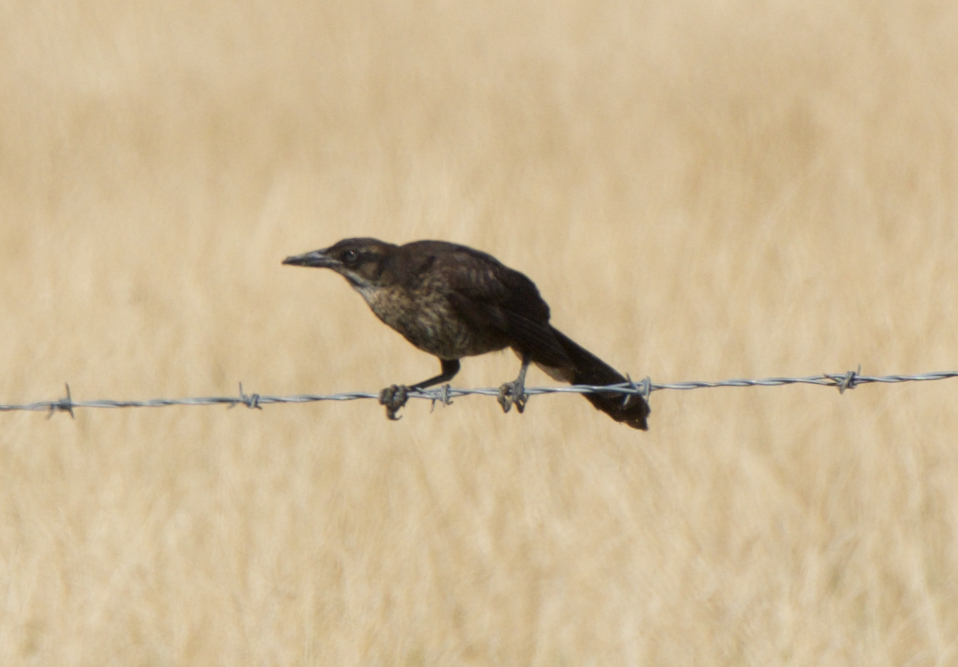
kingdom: Animalia
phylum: Chordata
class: Aves
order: Passeriformes
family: Icteridae
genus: Quiscalus
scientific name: Quiscalus mexicanus
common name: Great-tailed grackle
